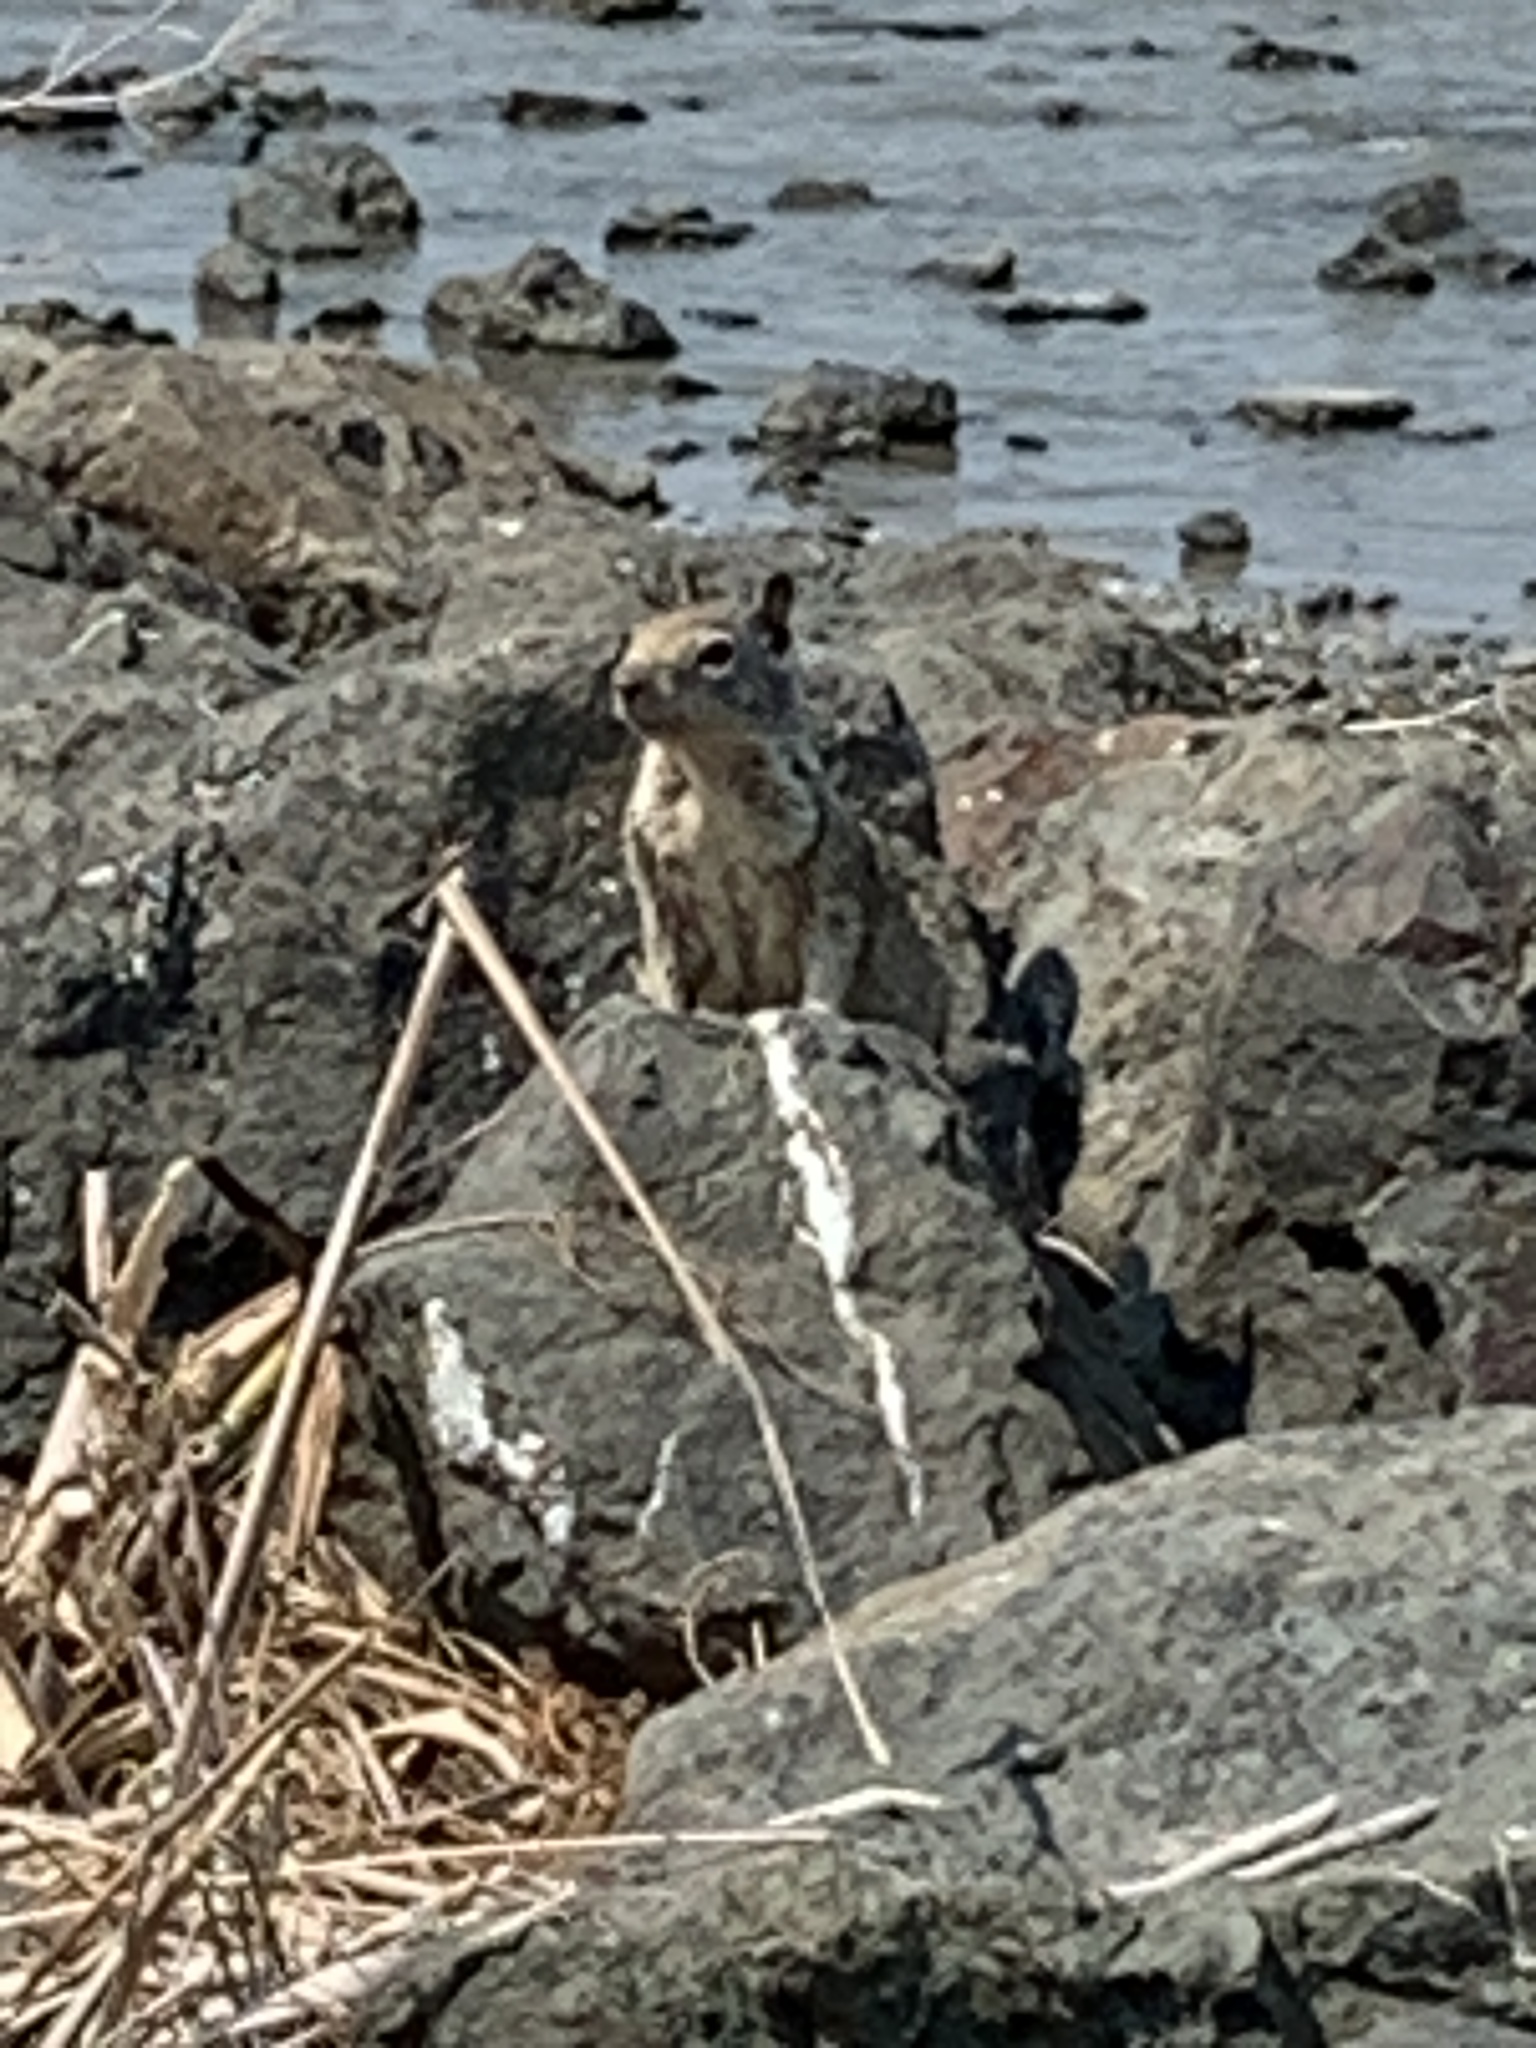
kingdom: Animalia
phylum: Chordata
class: Mammalia
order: Rodentia
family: Sciuridae
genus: Otospermophilus
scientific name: Otospermophilus beecheyi
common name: California ground squirrel
